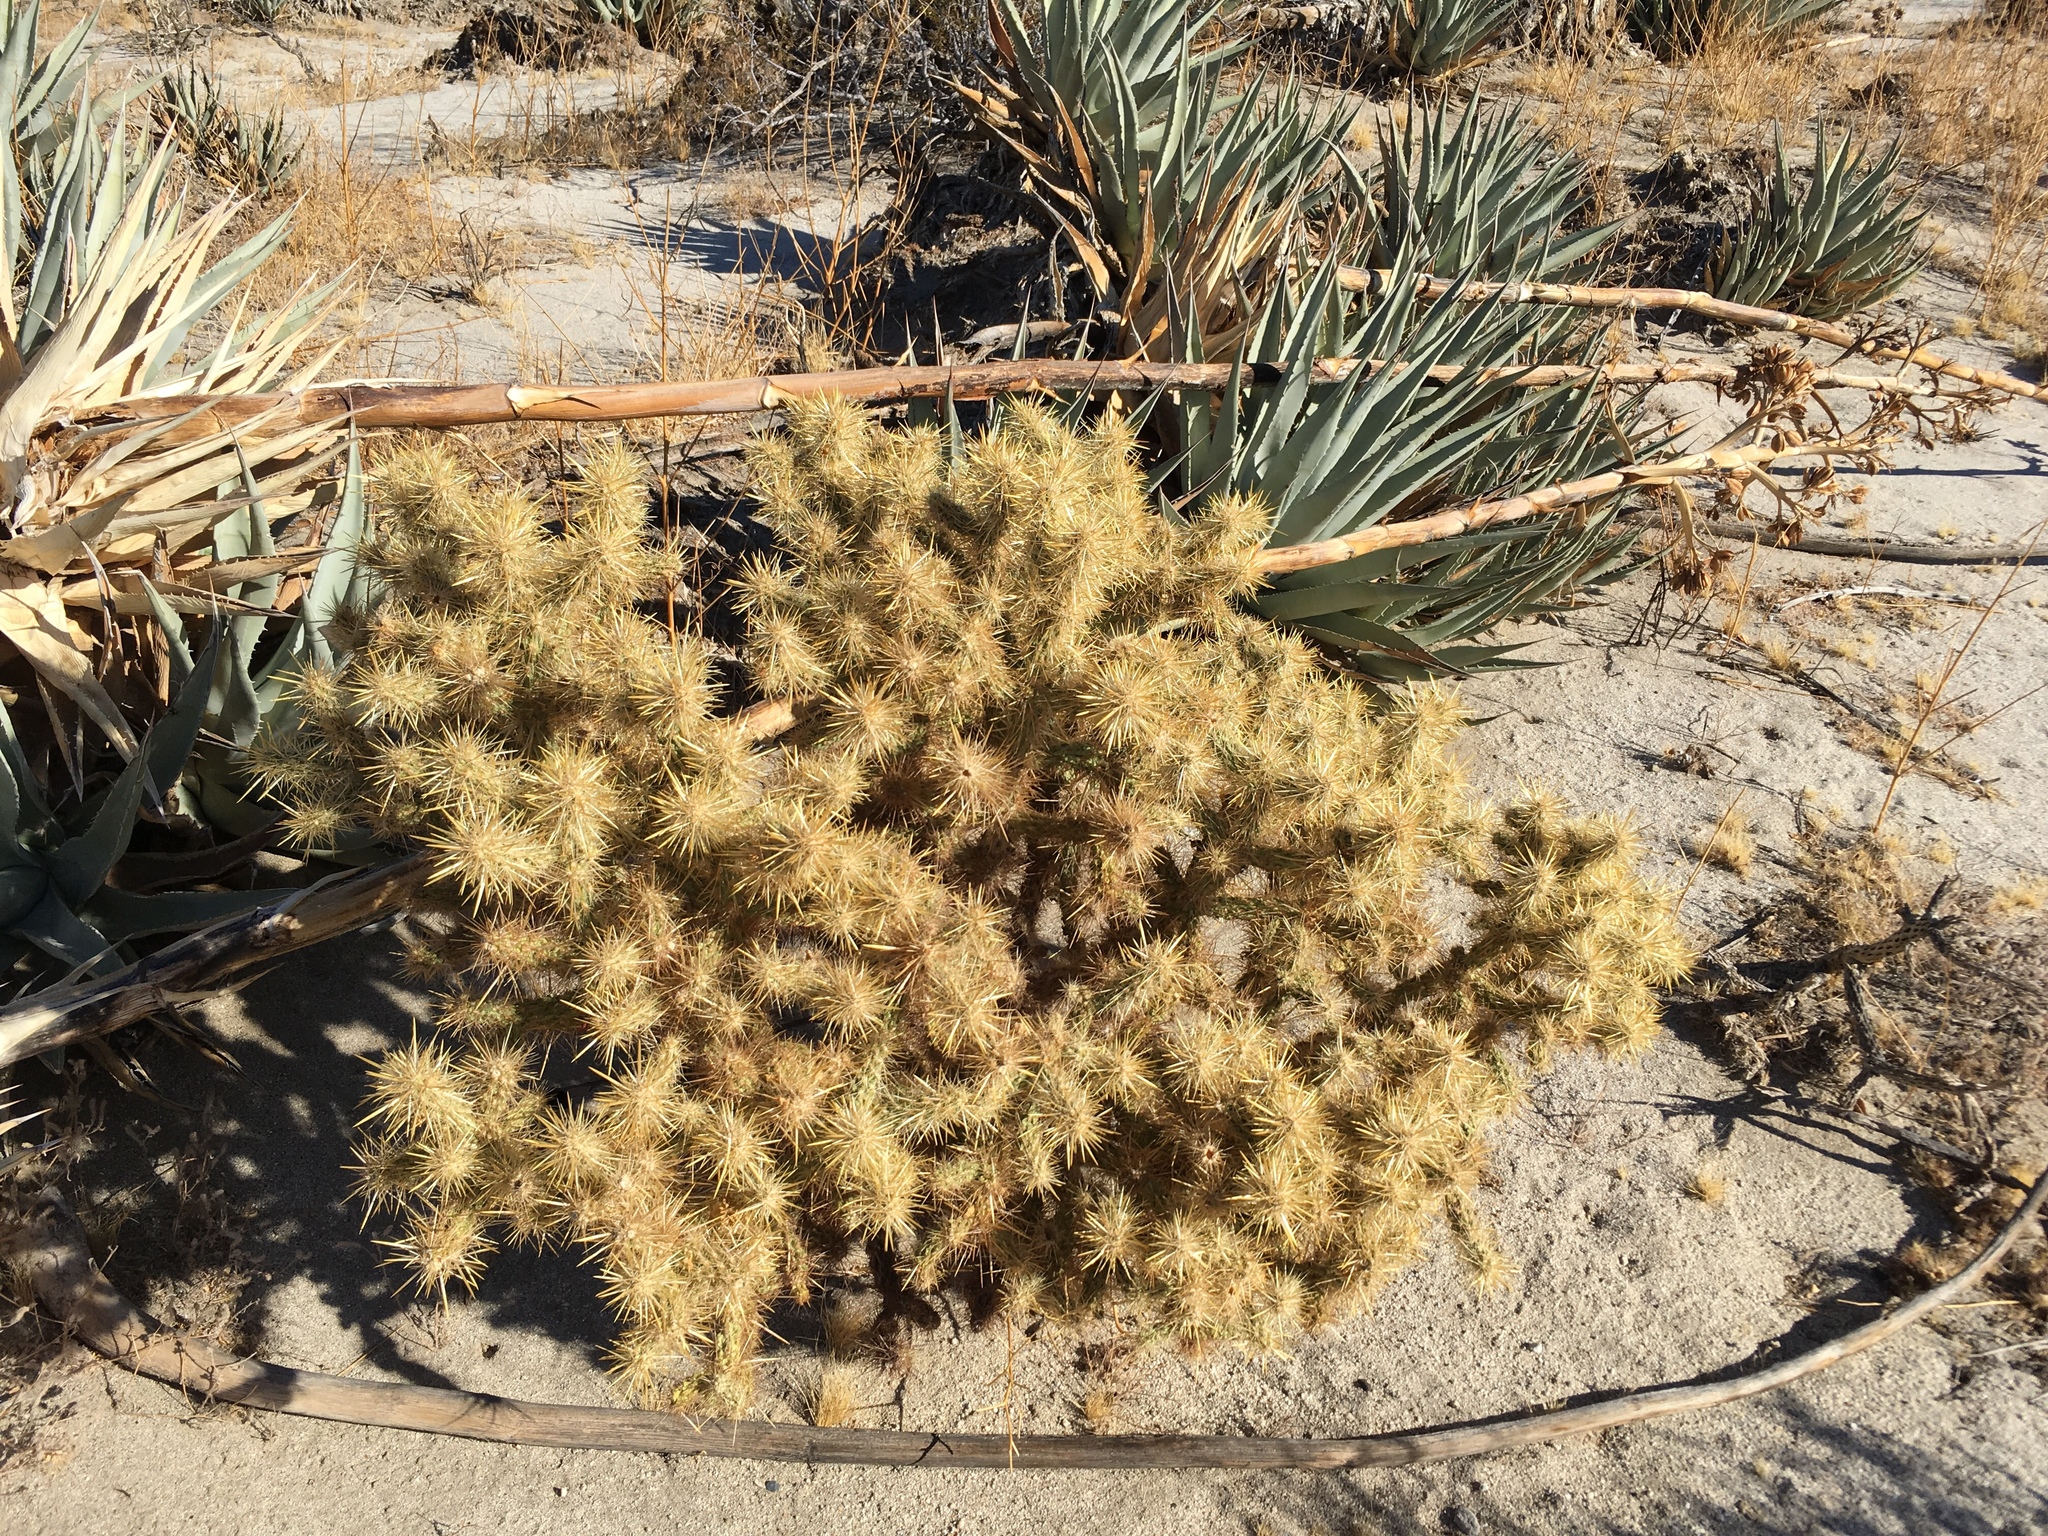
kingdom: Plantae
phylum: Tracheophyta
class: Magnoliopsida
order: Caryophyllales
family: Cactaceae
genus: Cylindropuntia
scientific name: Cylindropuntia echinocarpa
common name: Ground cholla
